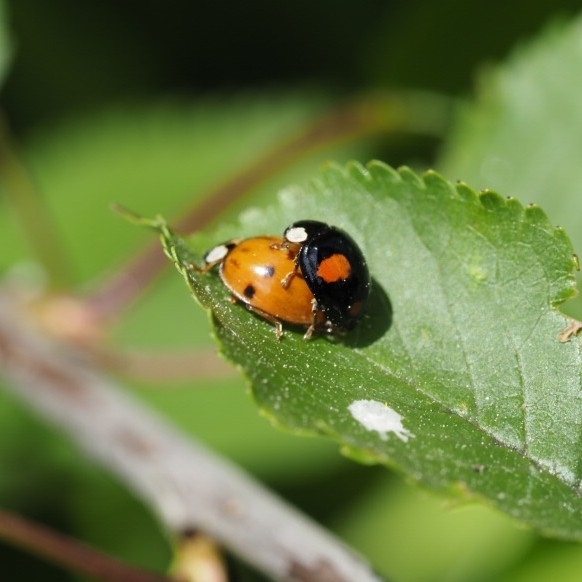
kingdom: Animalia
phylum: Arthropoda
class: Insecta
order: Coleoptera
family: Coccinellidae
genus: Harmonia
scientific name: Harmonia axyridis
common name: Harlequin ladybird
